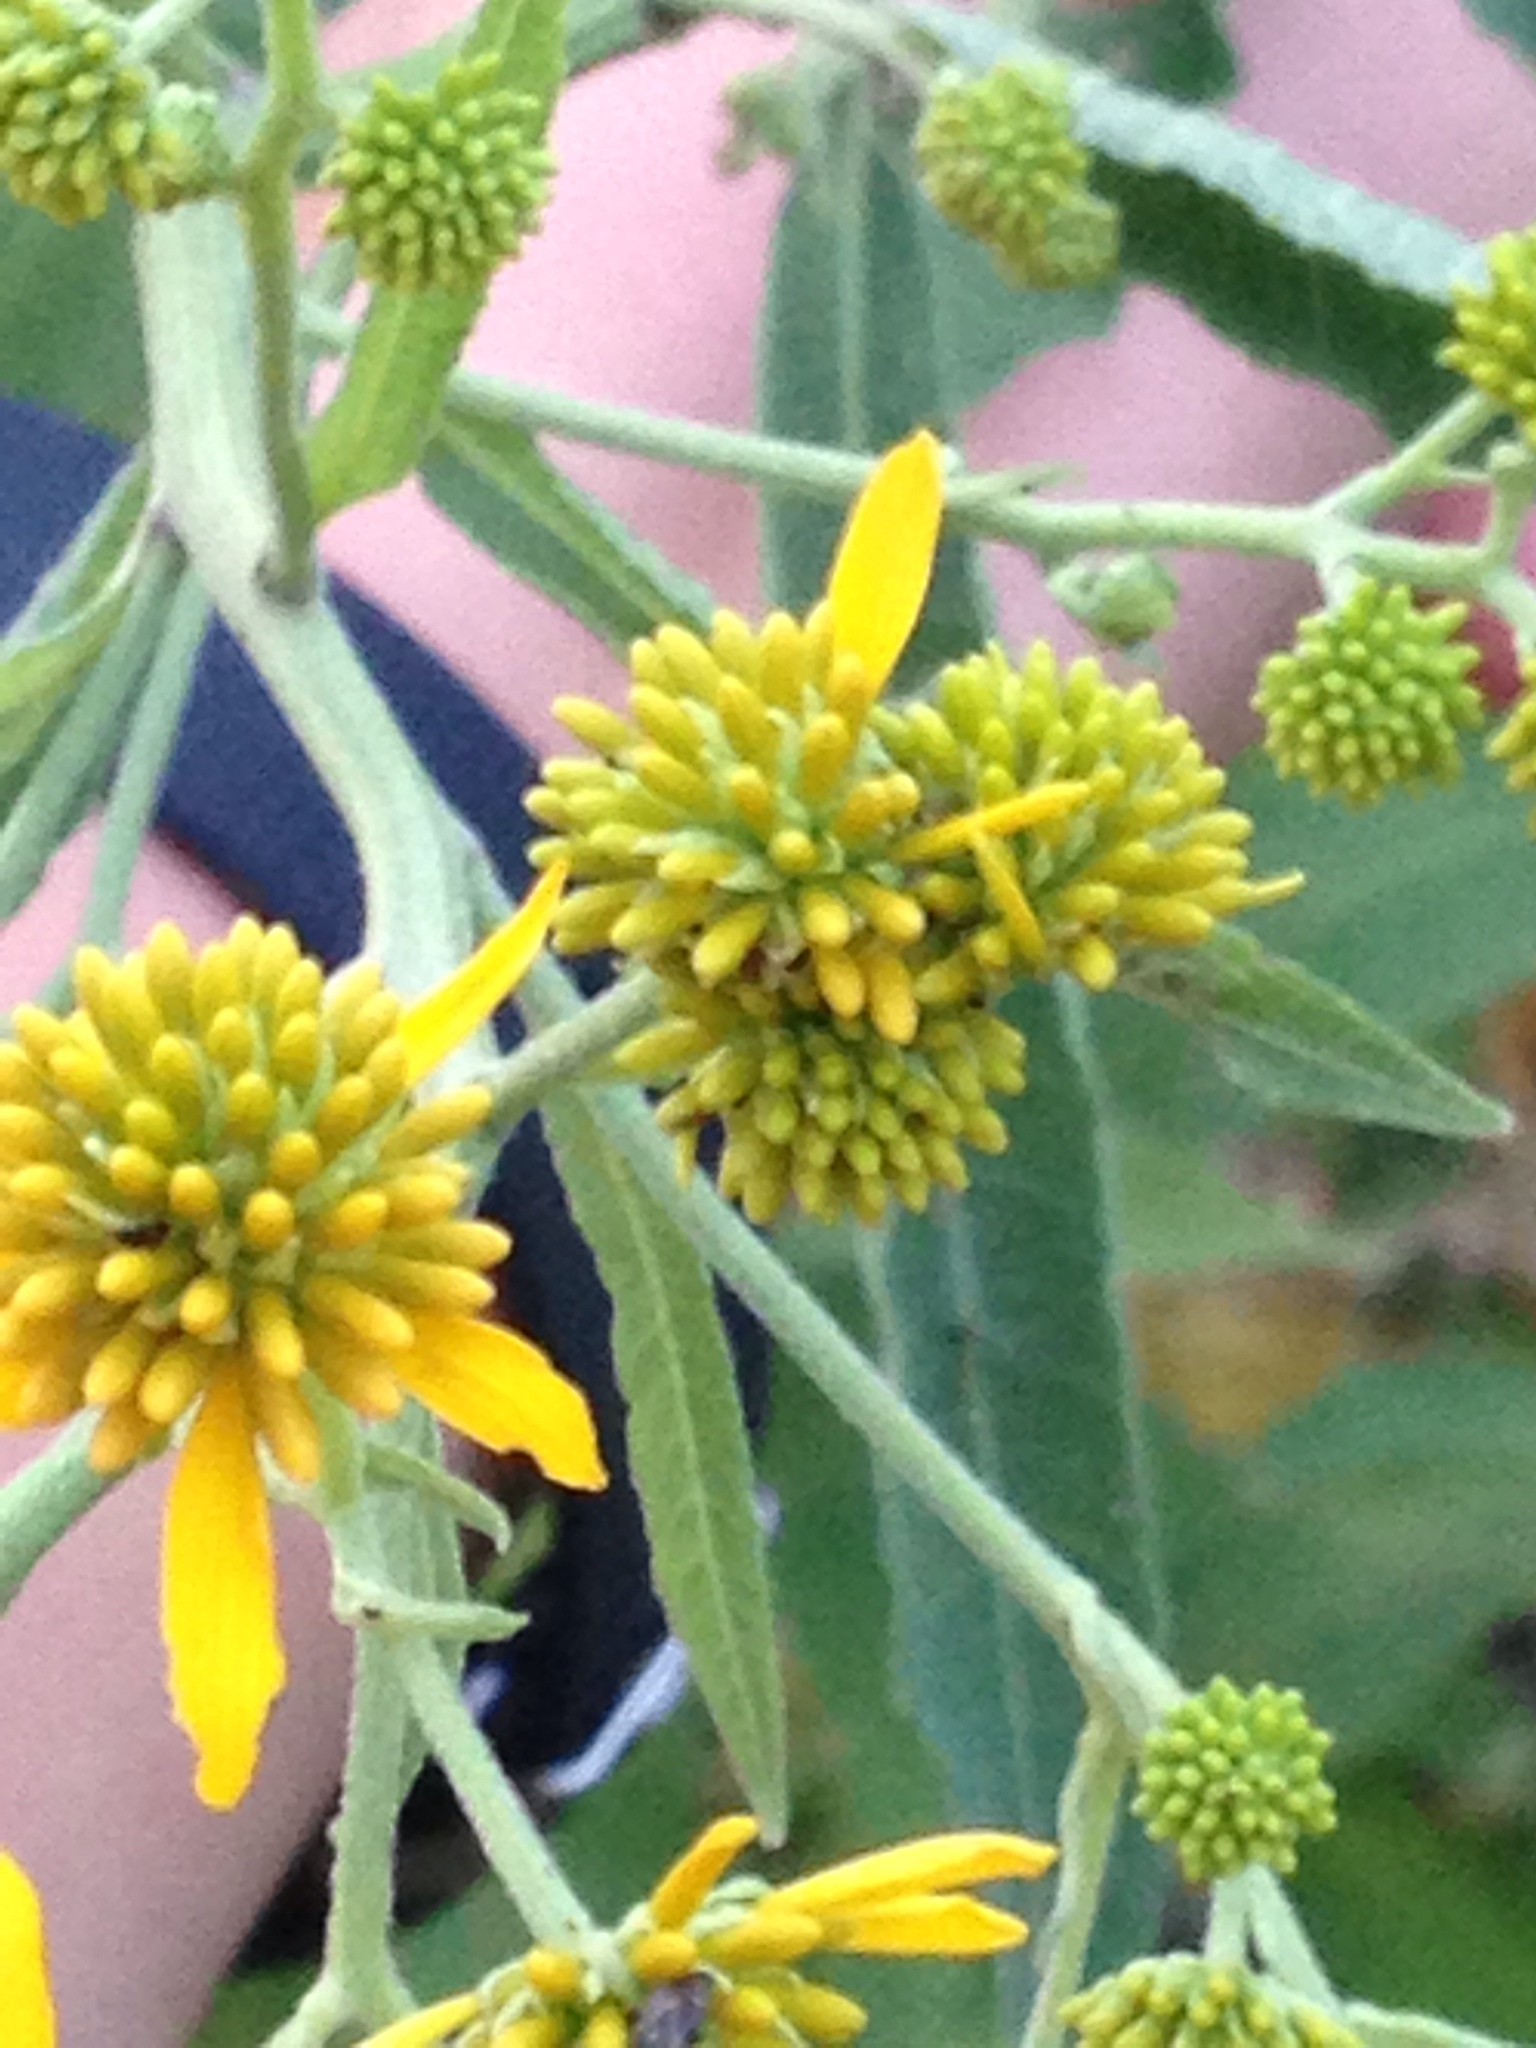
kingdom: Plantae
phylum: Tracheophyta
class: Magnoliopsida
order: Asterales
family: Asteraceae
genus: Verbesina
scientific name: Verbesina alternifolia
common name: Wingstem
